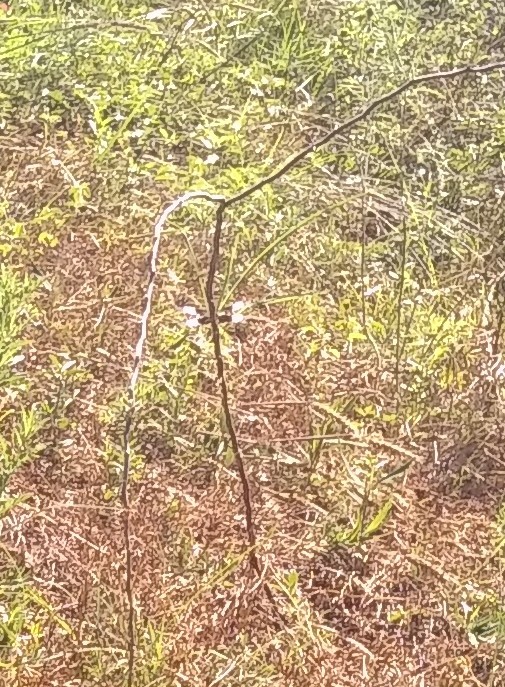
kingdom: Animalia
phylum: Arthropoda
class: Insecta
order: Odonata
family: Libellulidae
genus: Libellula
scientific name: Libellula luctuosa
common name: Widow skimmer
